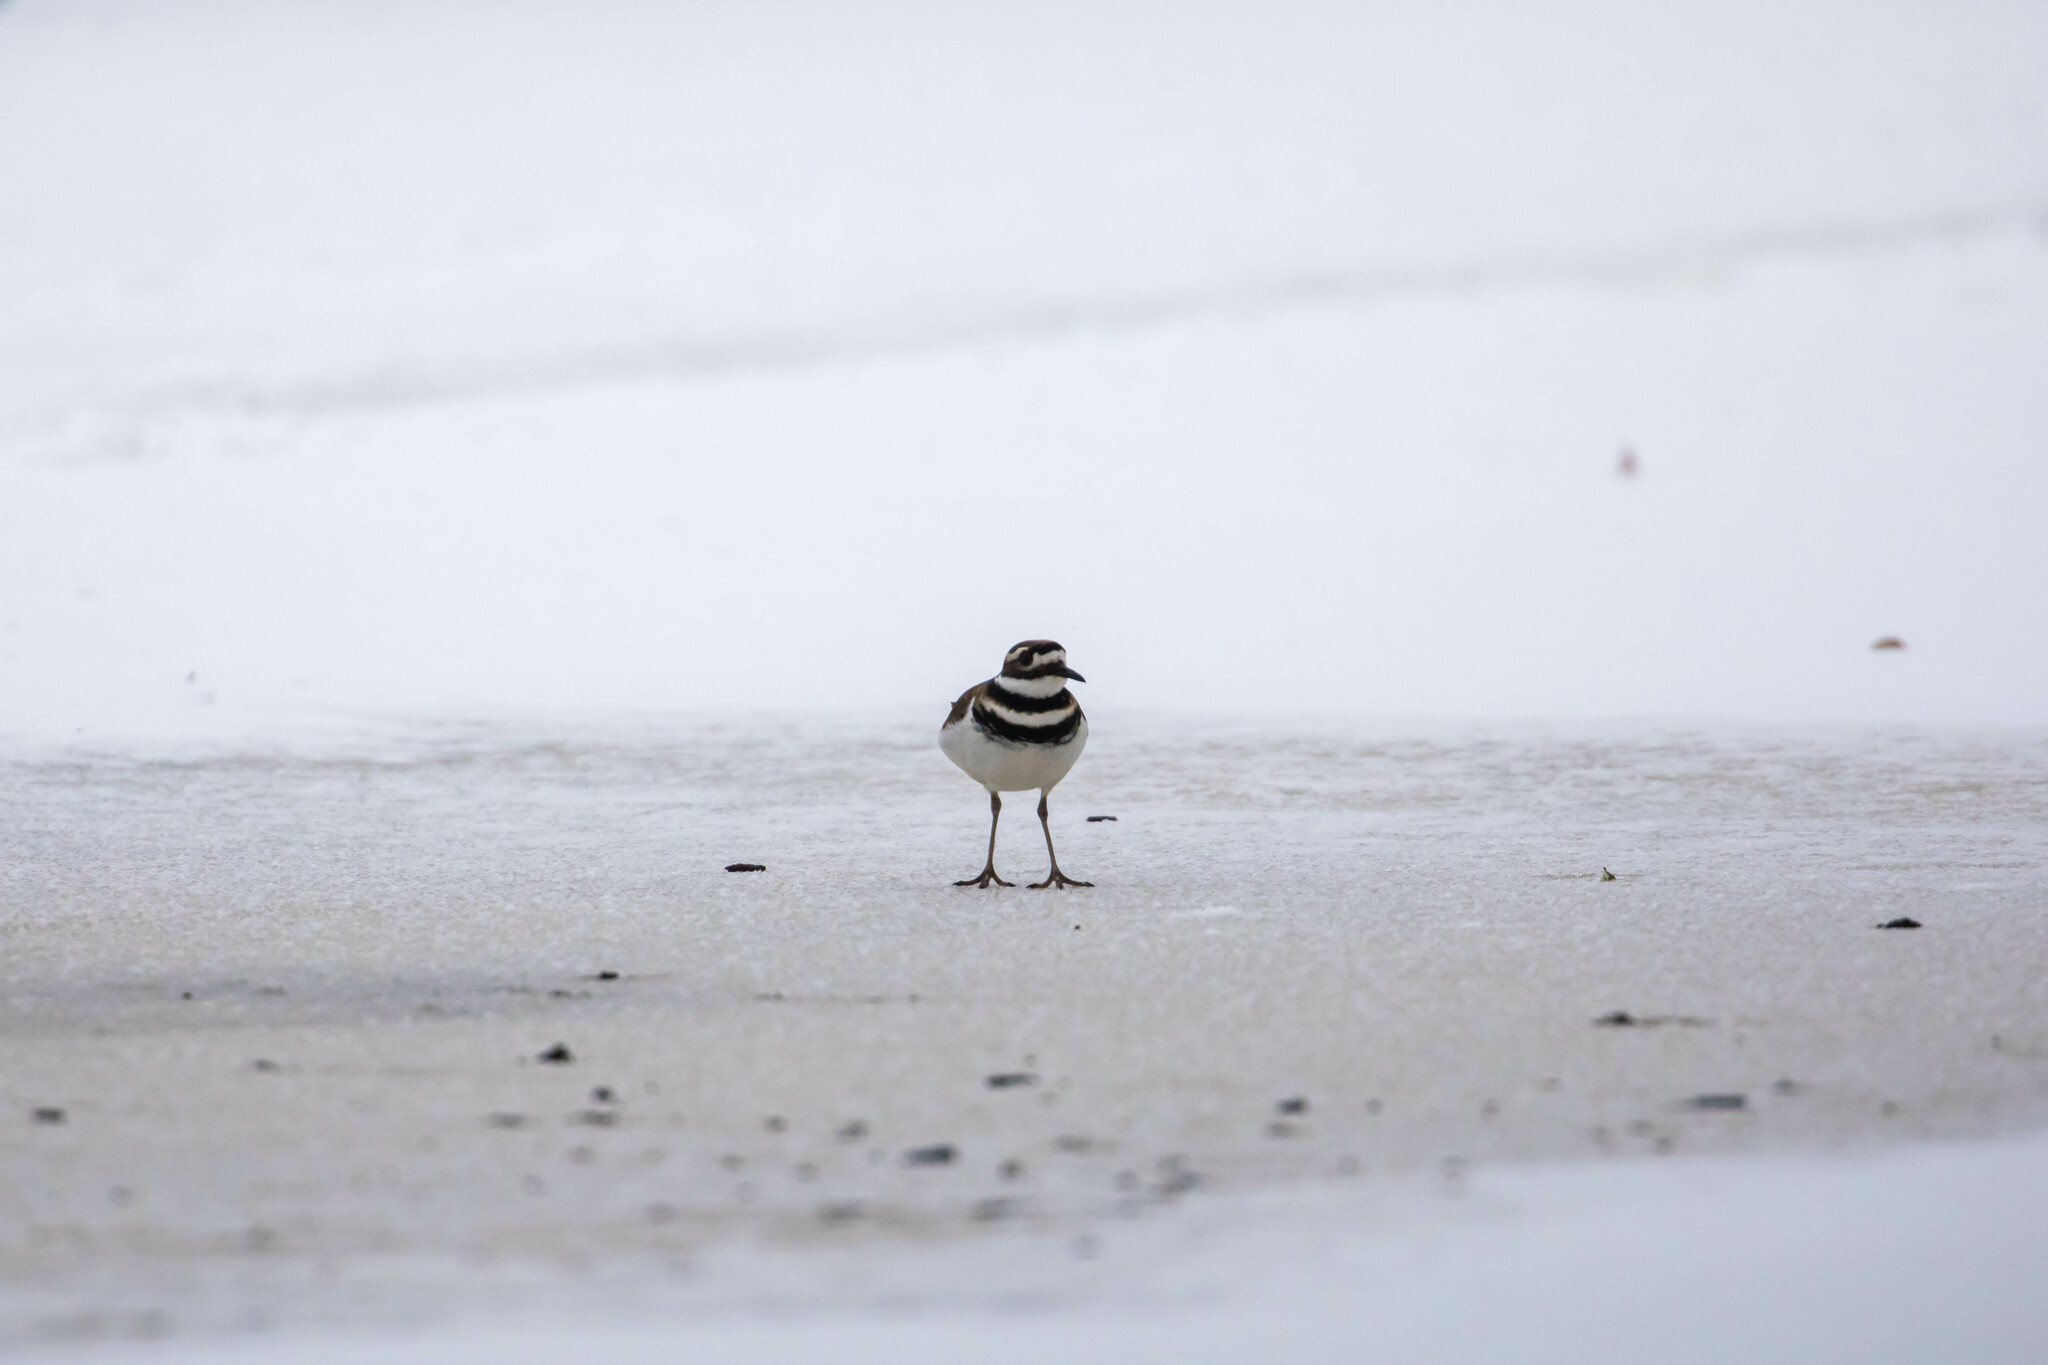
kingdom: Animalia
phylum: Chordata
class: Aves
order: Charadriiformes
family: Charadriidae
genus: Charadrius
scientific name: Charadrius vociferus
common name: Killdeer
